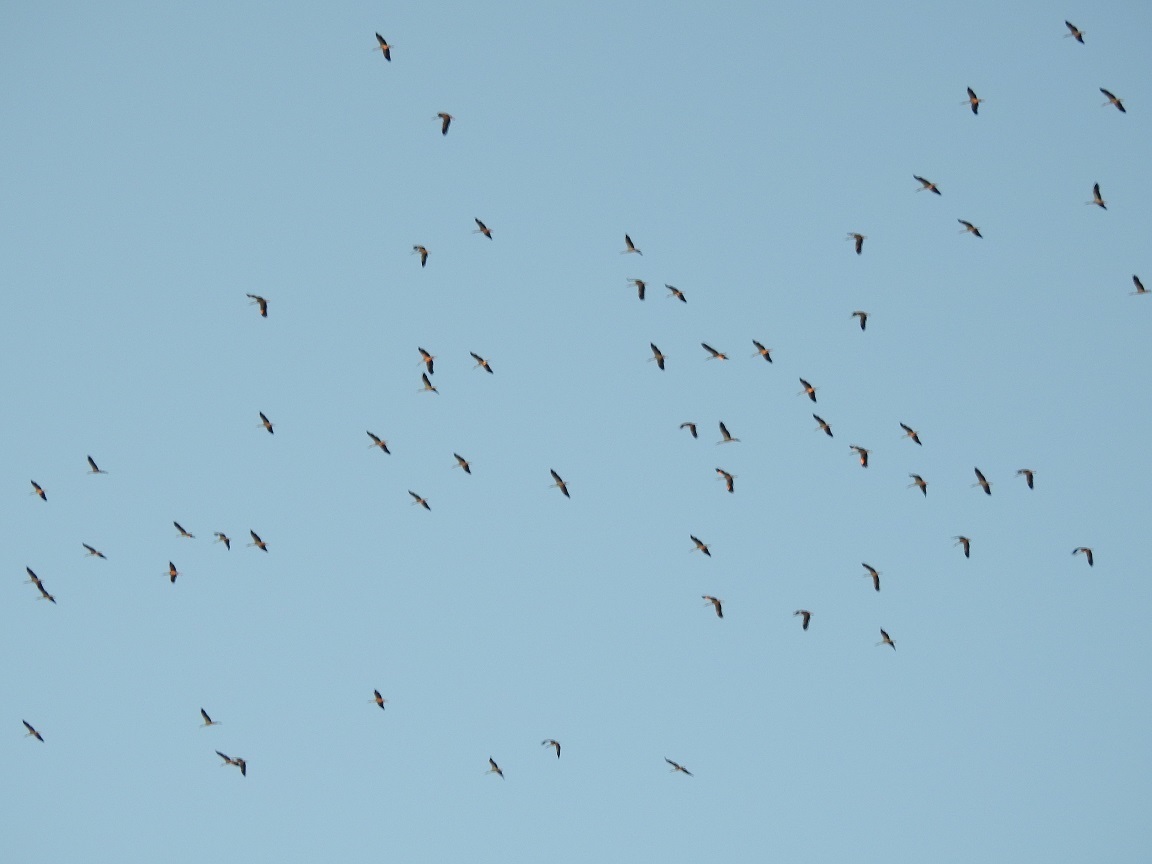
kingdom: Animalia
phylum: Chordata
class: Aves
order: Ciconiiformes
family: Ciconiidae
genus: Ciconia
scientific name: Ciconia ciconia
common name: White stork
